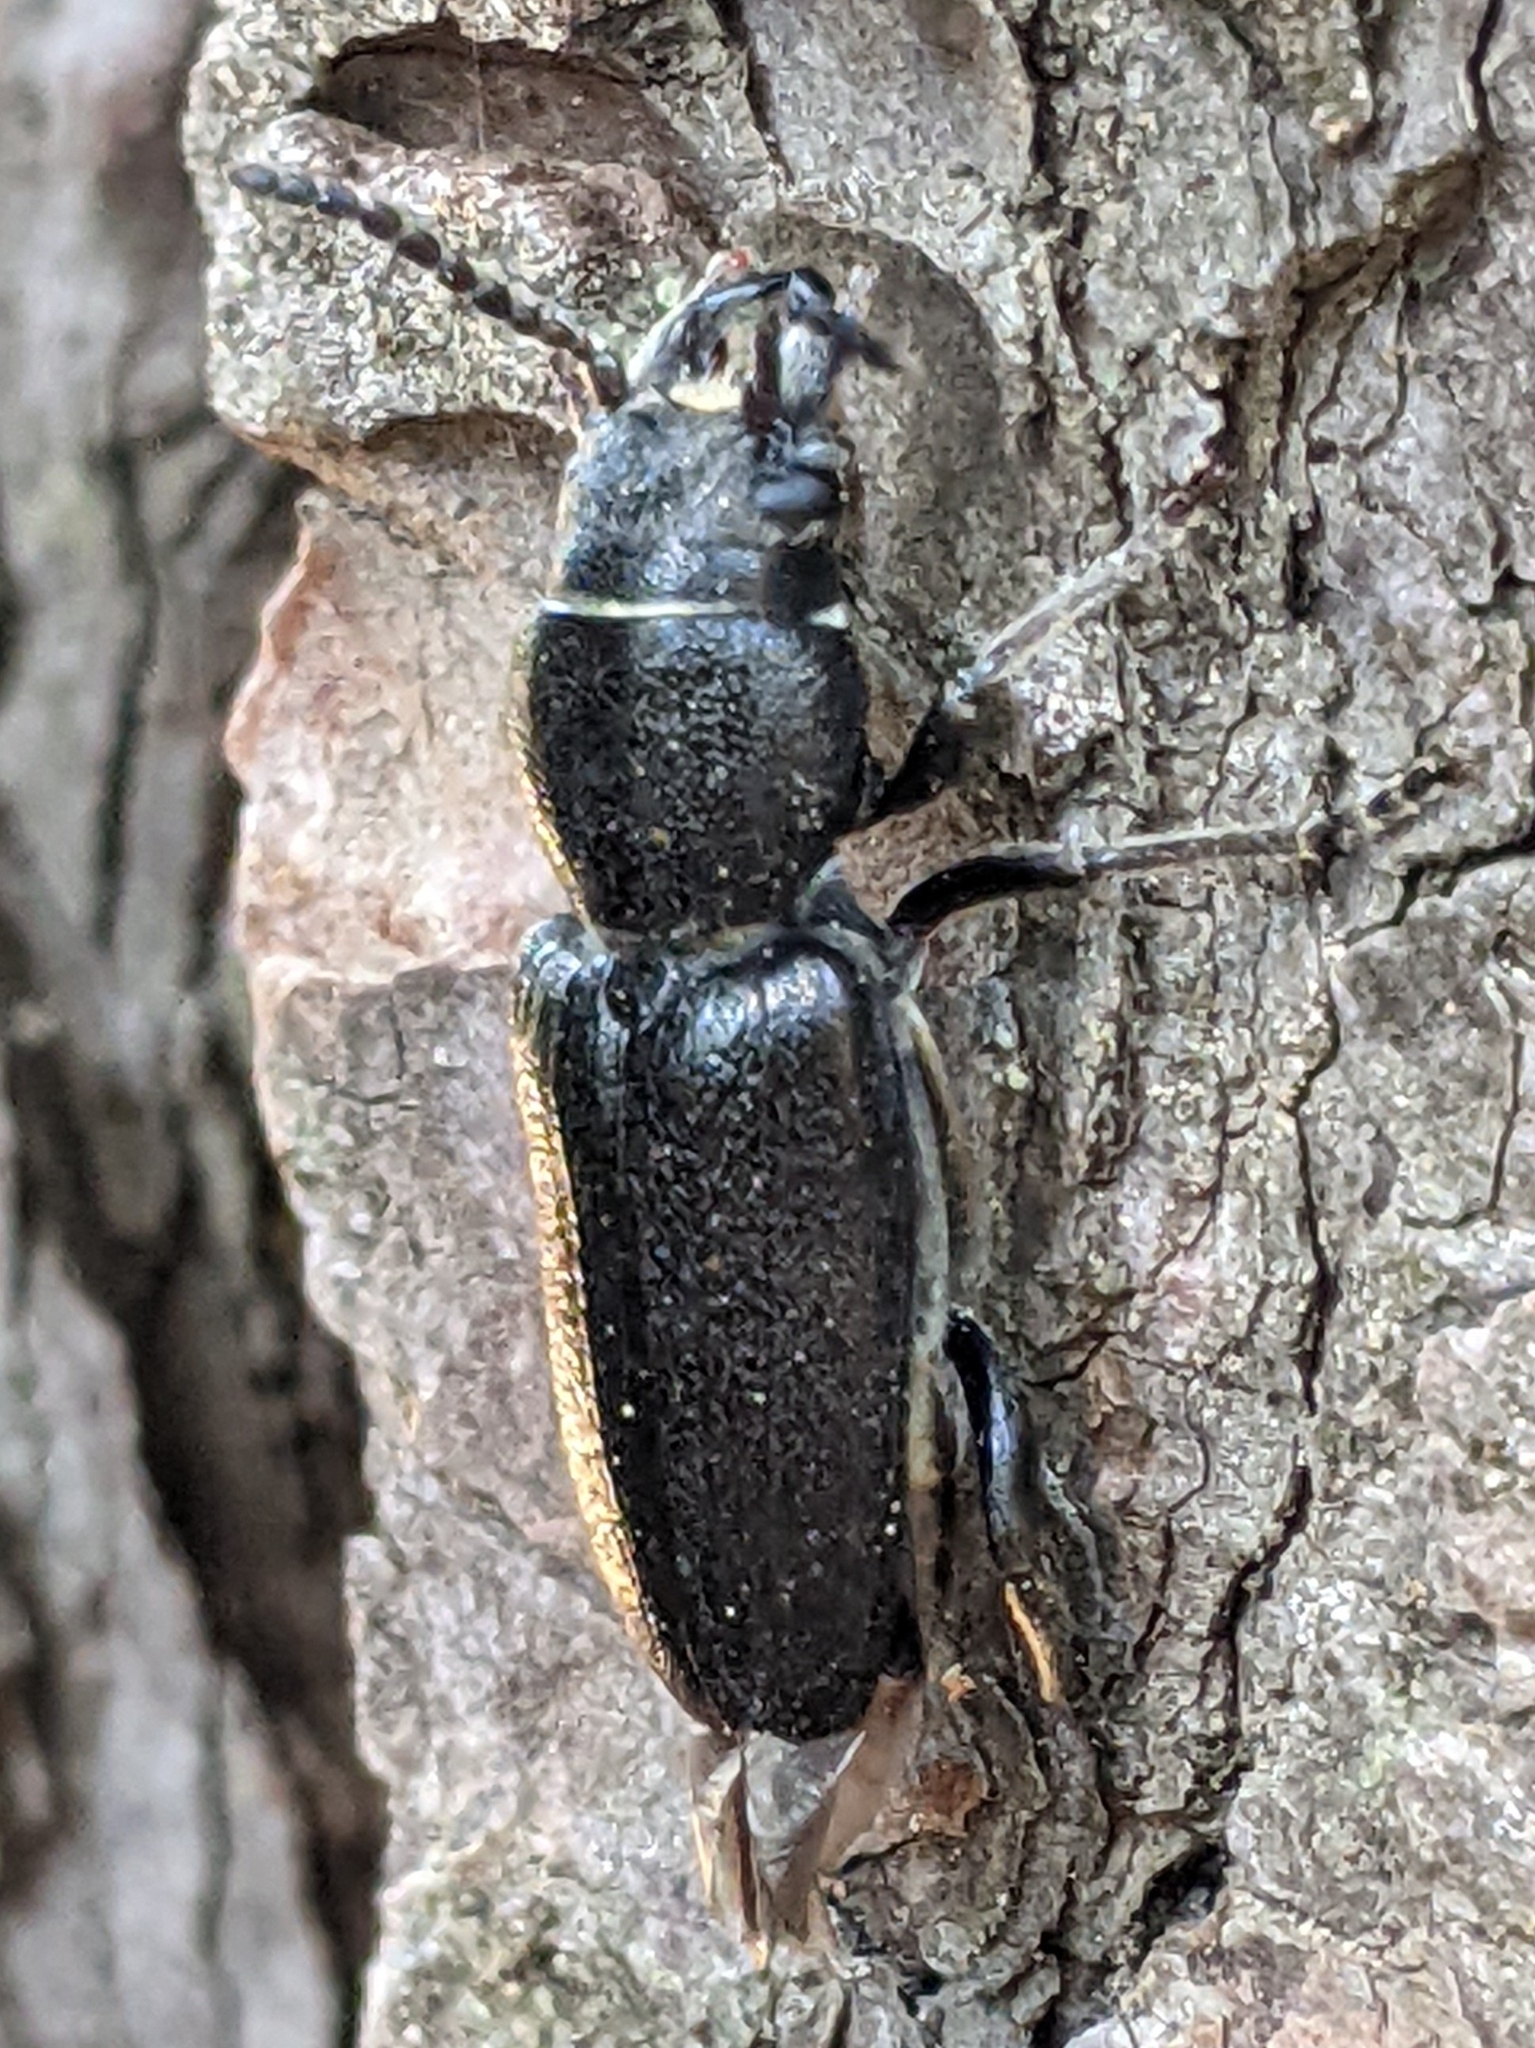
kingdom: Animalia
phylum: Arthropoda
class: Insecta
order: Coleoptera
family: Cerambycidae
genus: Neospondylis
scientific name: Neospondylis upiformis
